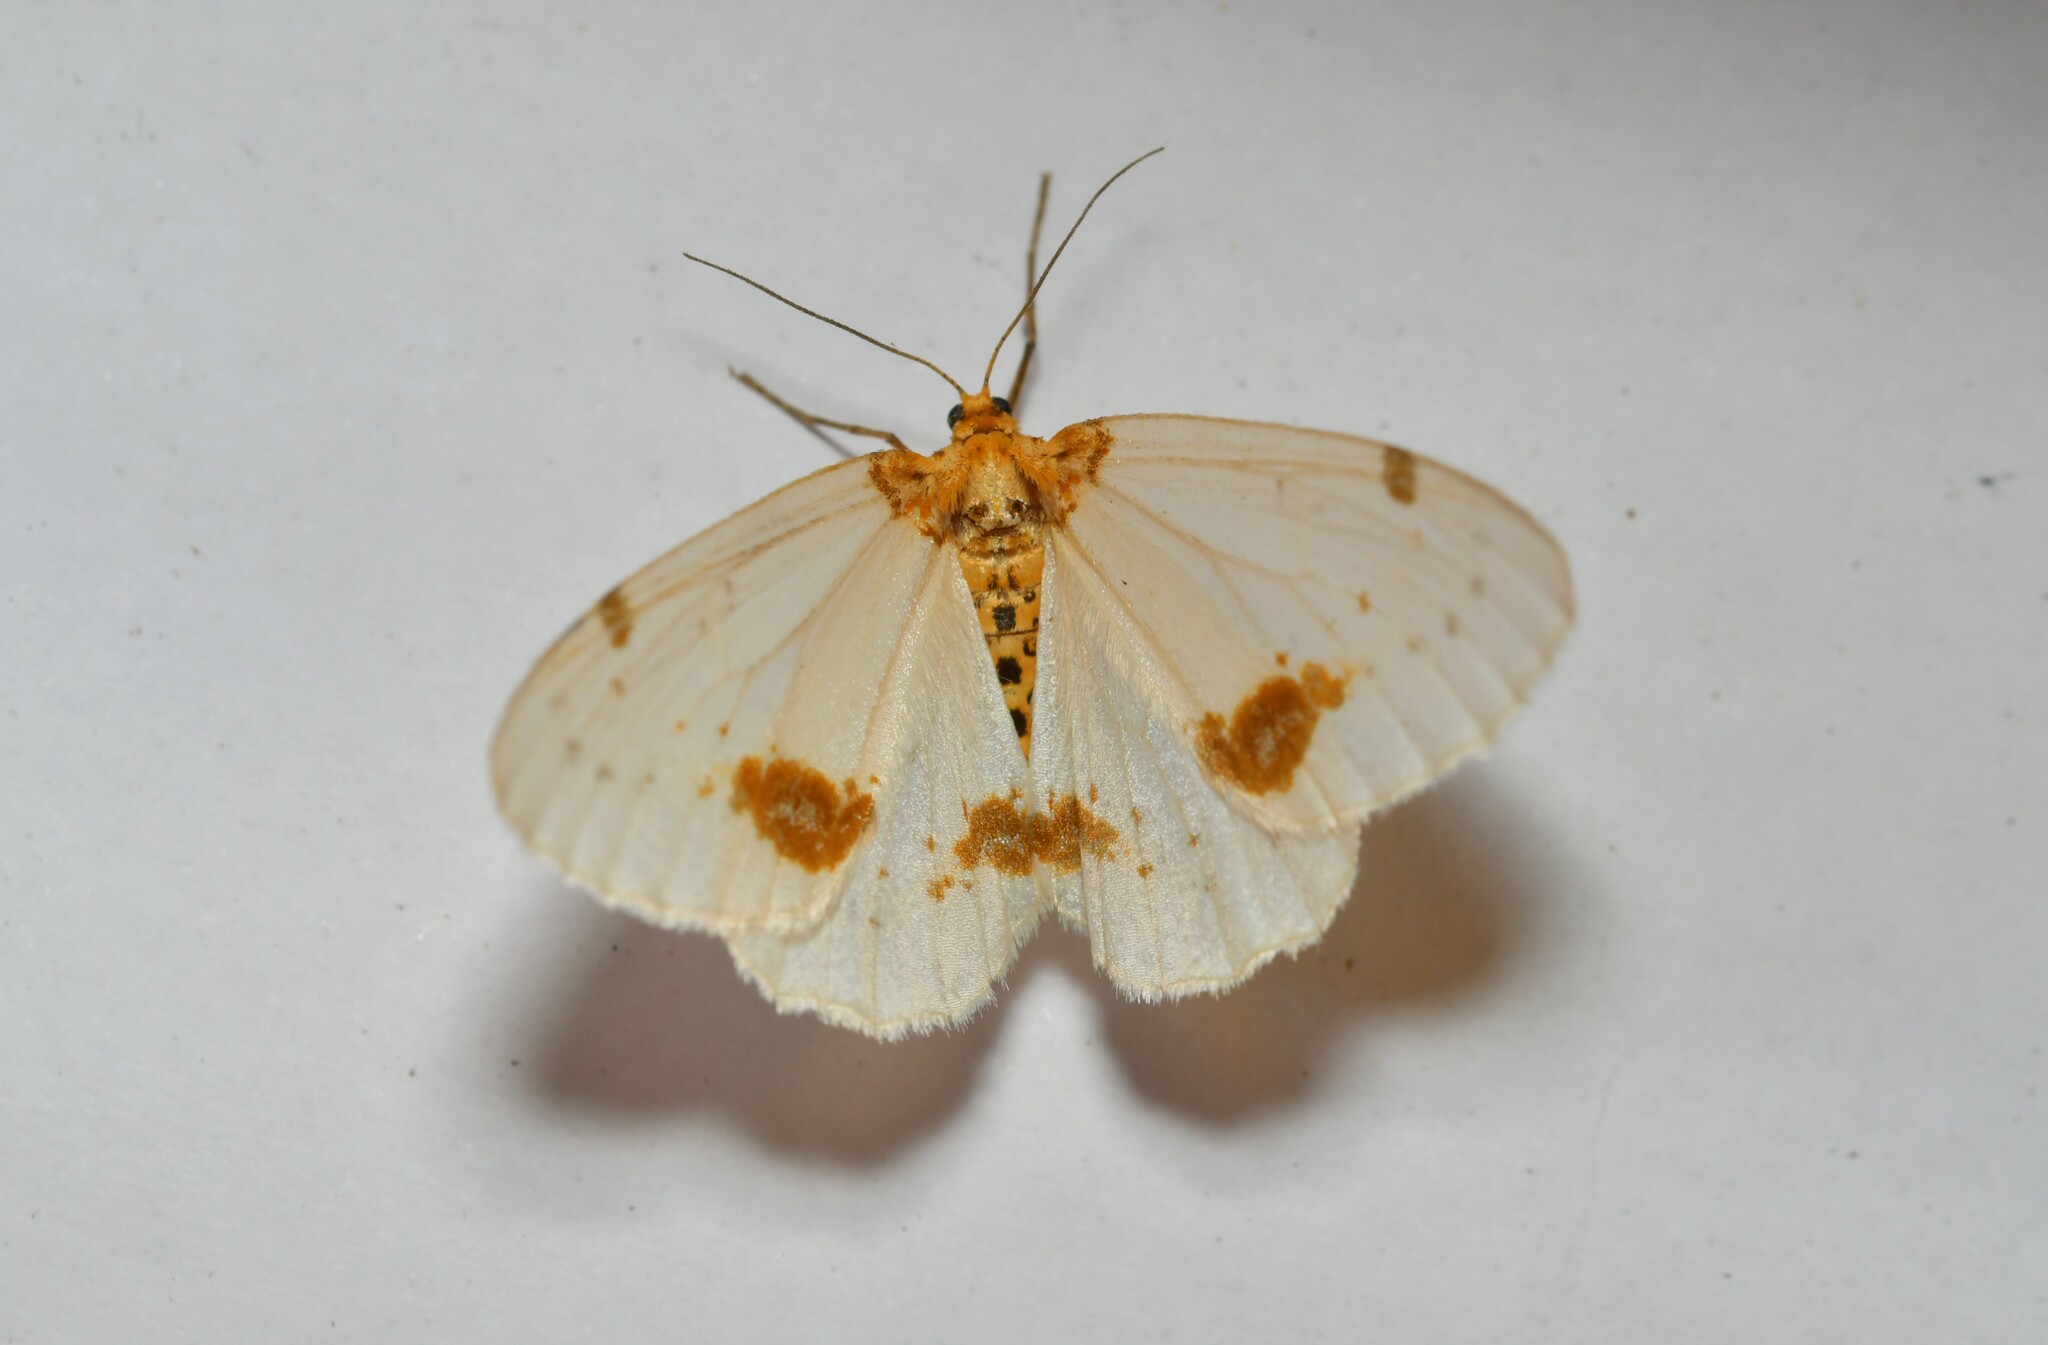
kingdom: Animalia
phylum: Arthropoda
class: Insecta
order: Lepidoptera
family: Geometridae
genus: Abraxas
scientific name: Abraxas pantaria
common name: Light magpie
